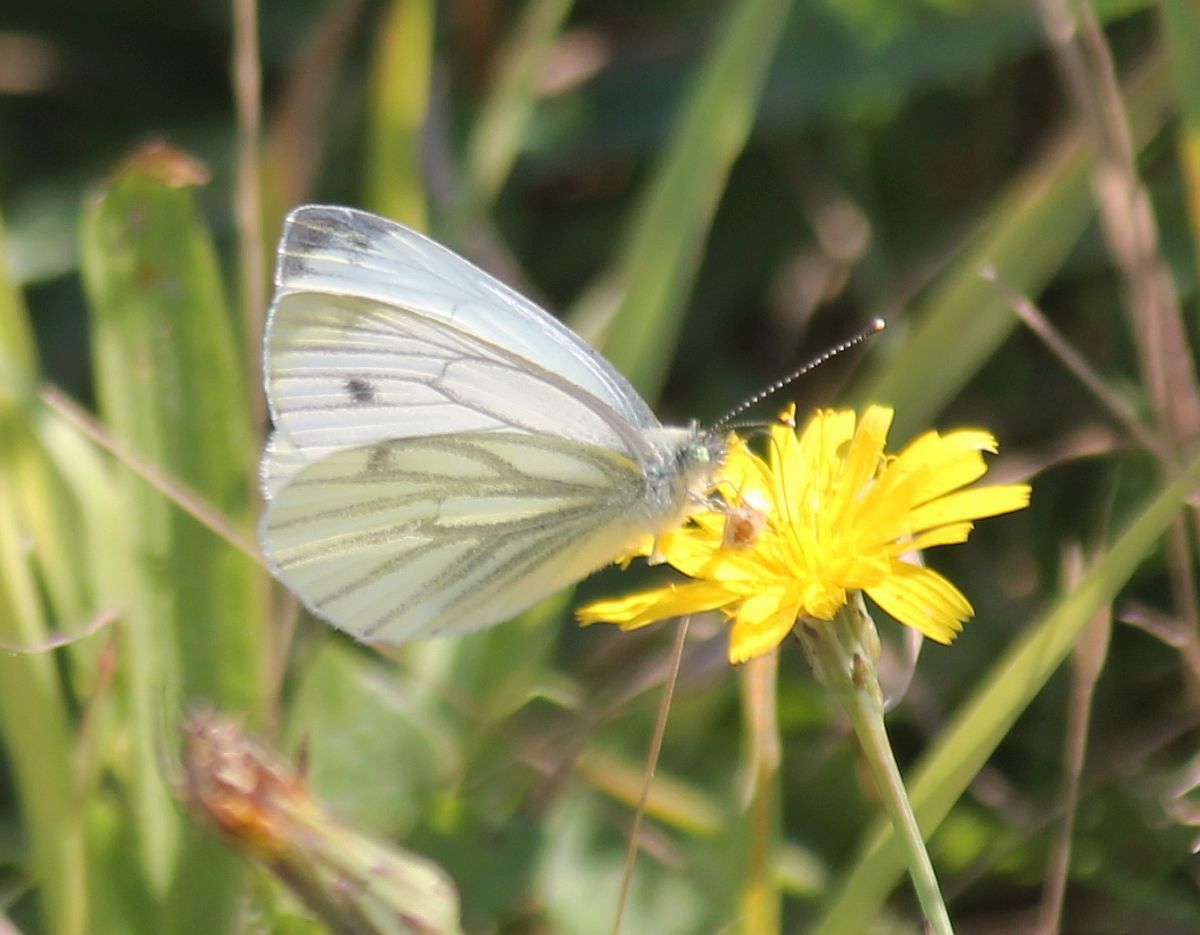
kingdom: Animalia
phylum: Arthropoda
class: Insecta
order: Lepidoptera
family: Pieridae
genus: Pieris
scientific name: Pieris napi
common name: Green-veined white
